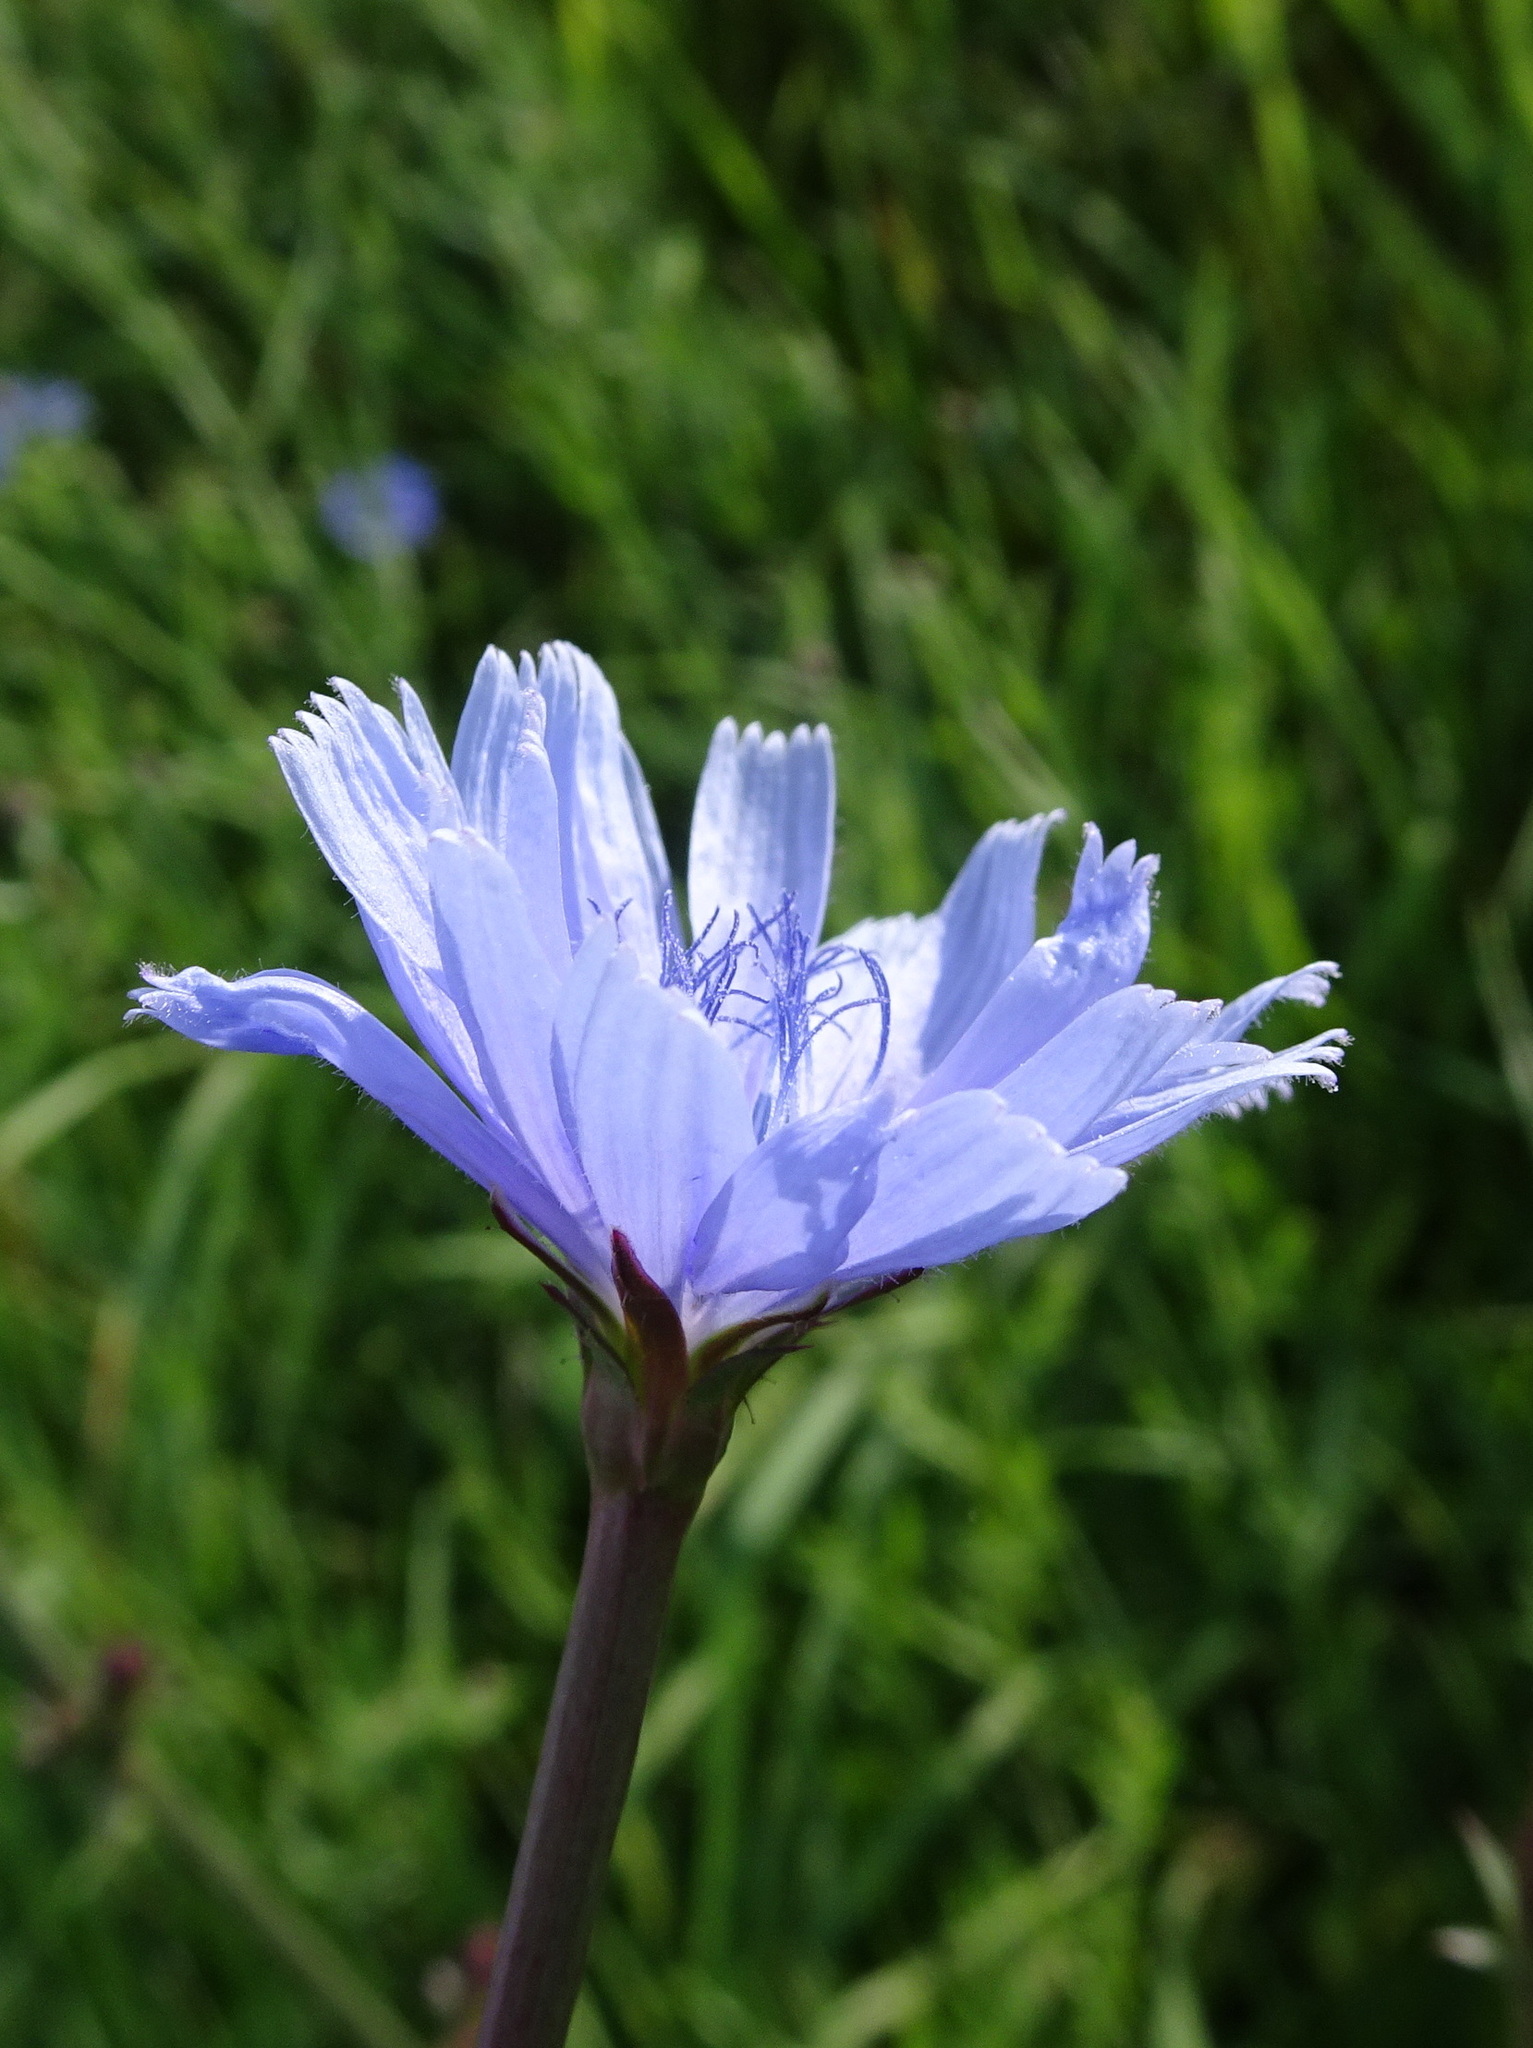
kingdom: Plantae
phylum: Tracheophyta
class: Magnoliopsida
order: Asterales
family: Asteraceae
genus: Cichorium
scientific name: Cichorium intybus
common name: Chicory
